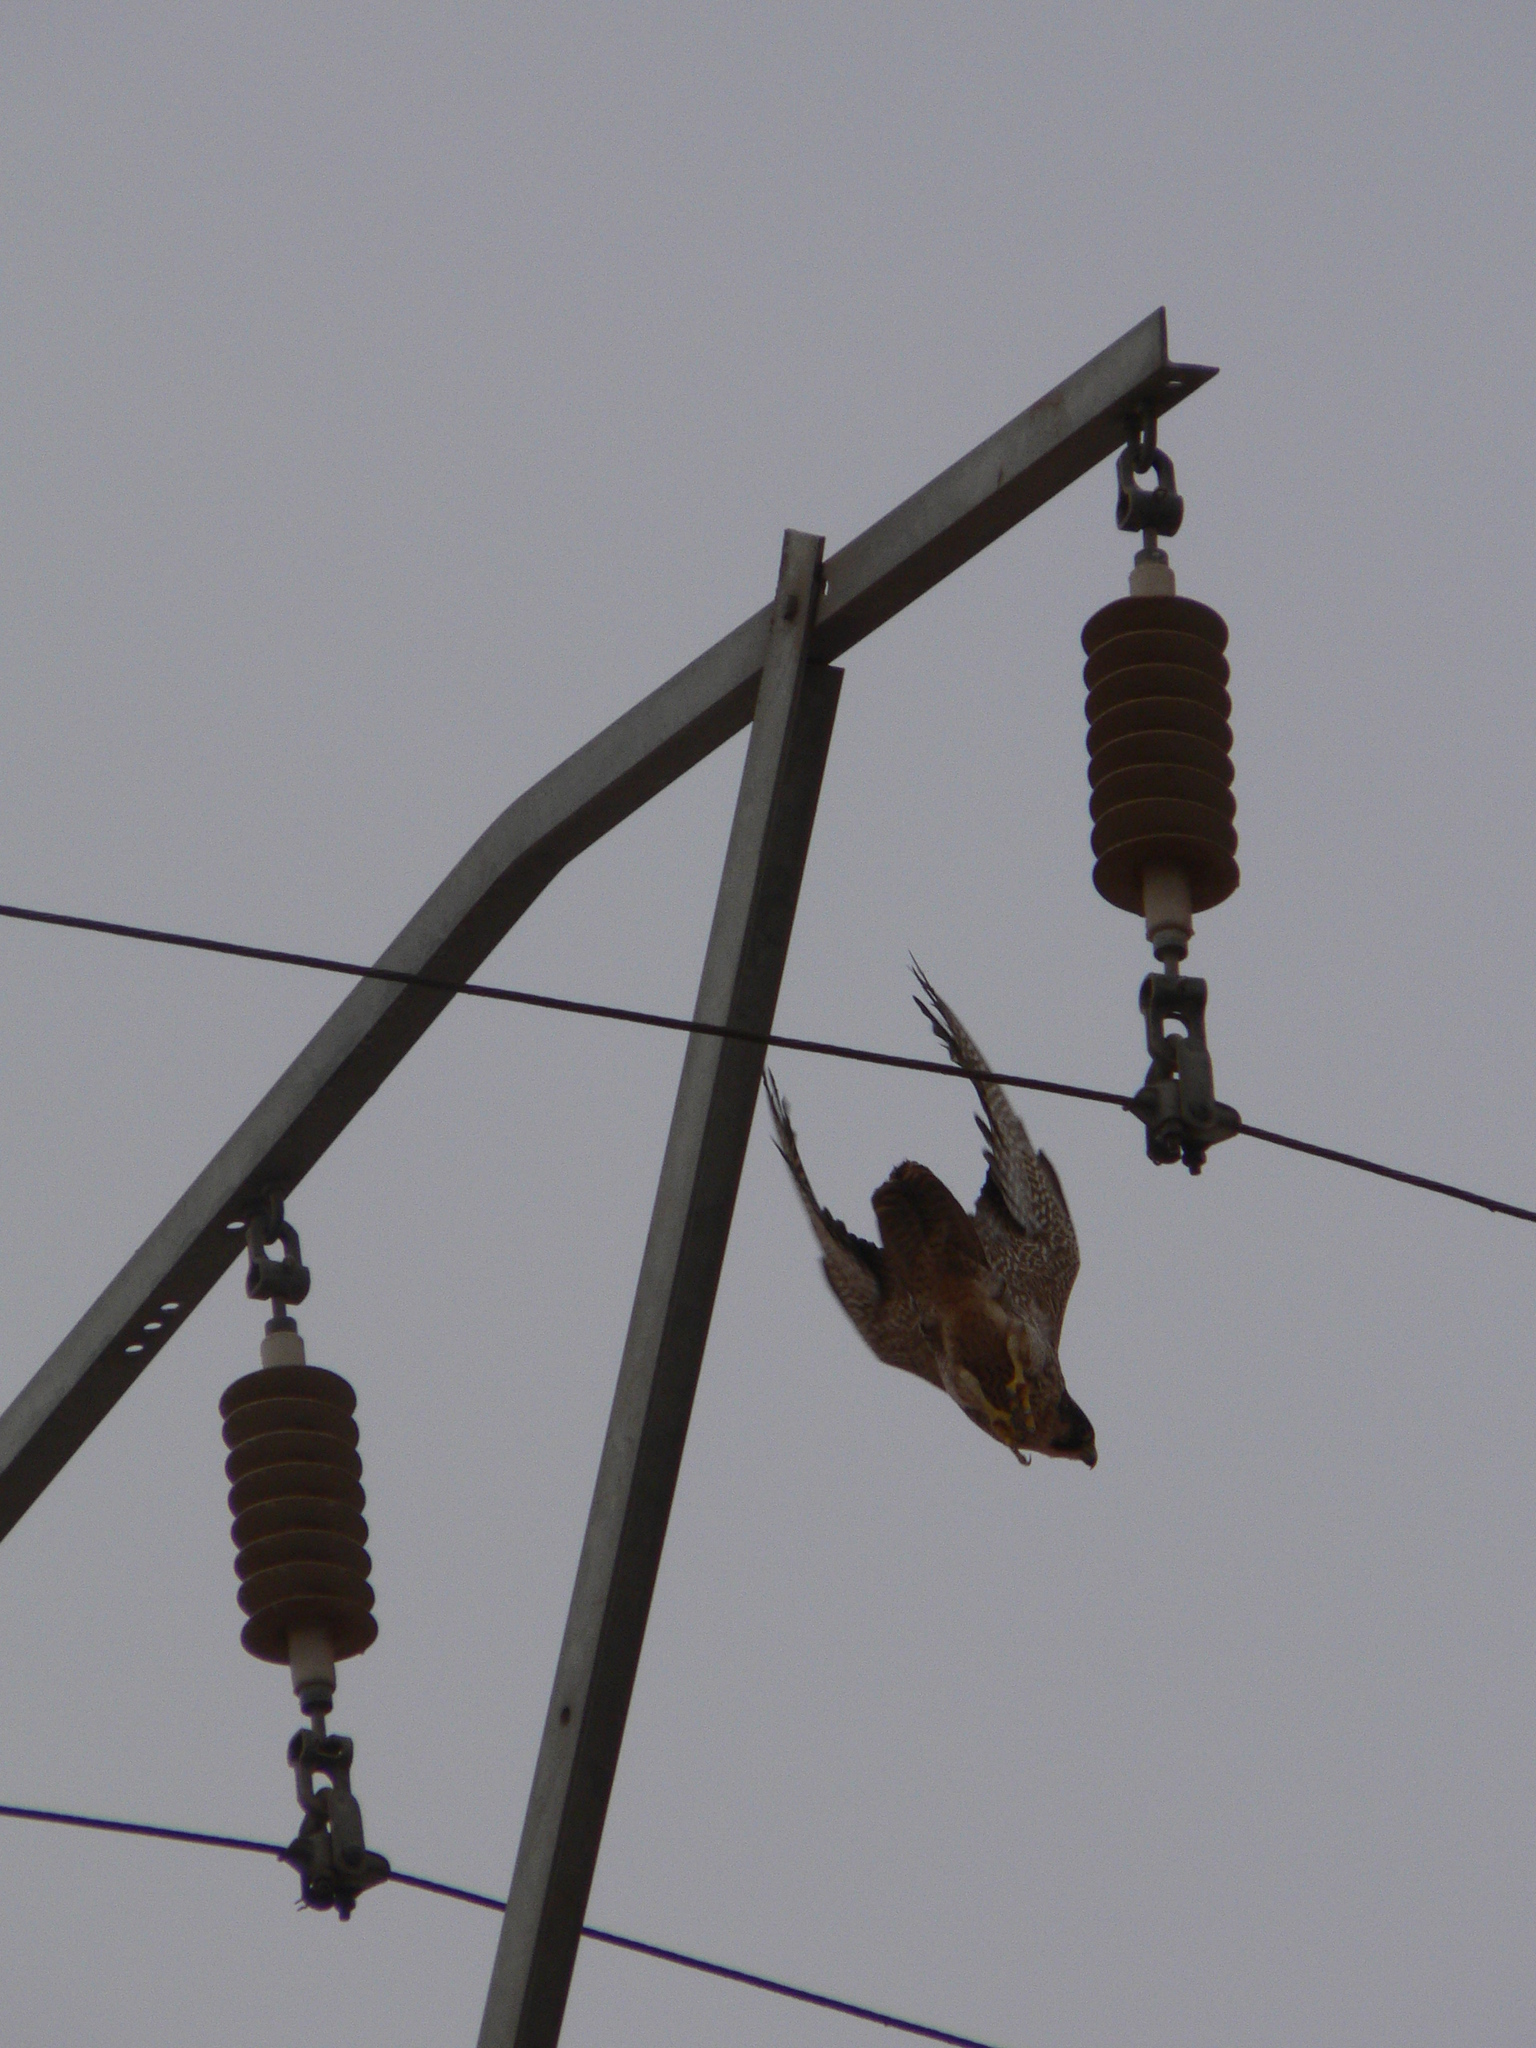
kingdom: Animalia
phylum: Chordata
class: Aves
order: Falconiformes
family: Falconidae
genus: Falco
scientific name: Falco peregrinus
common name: Peregrine falcon
